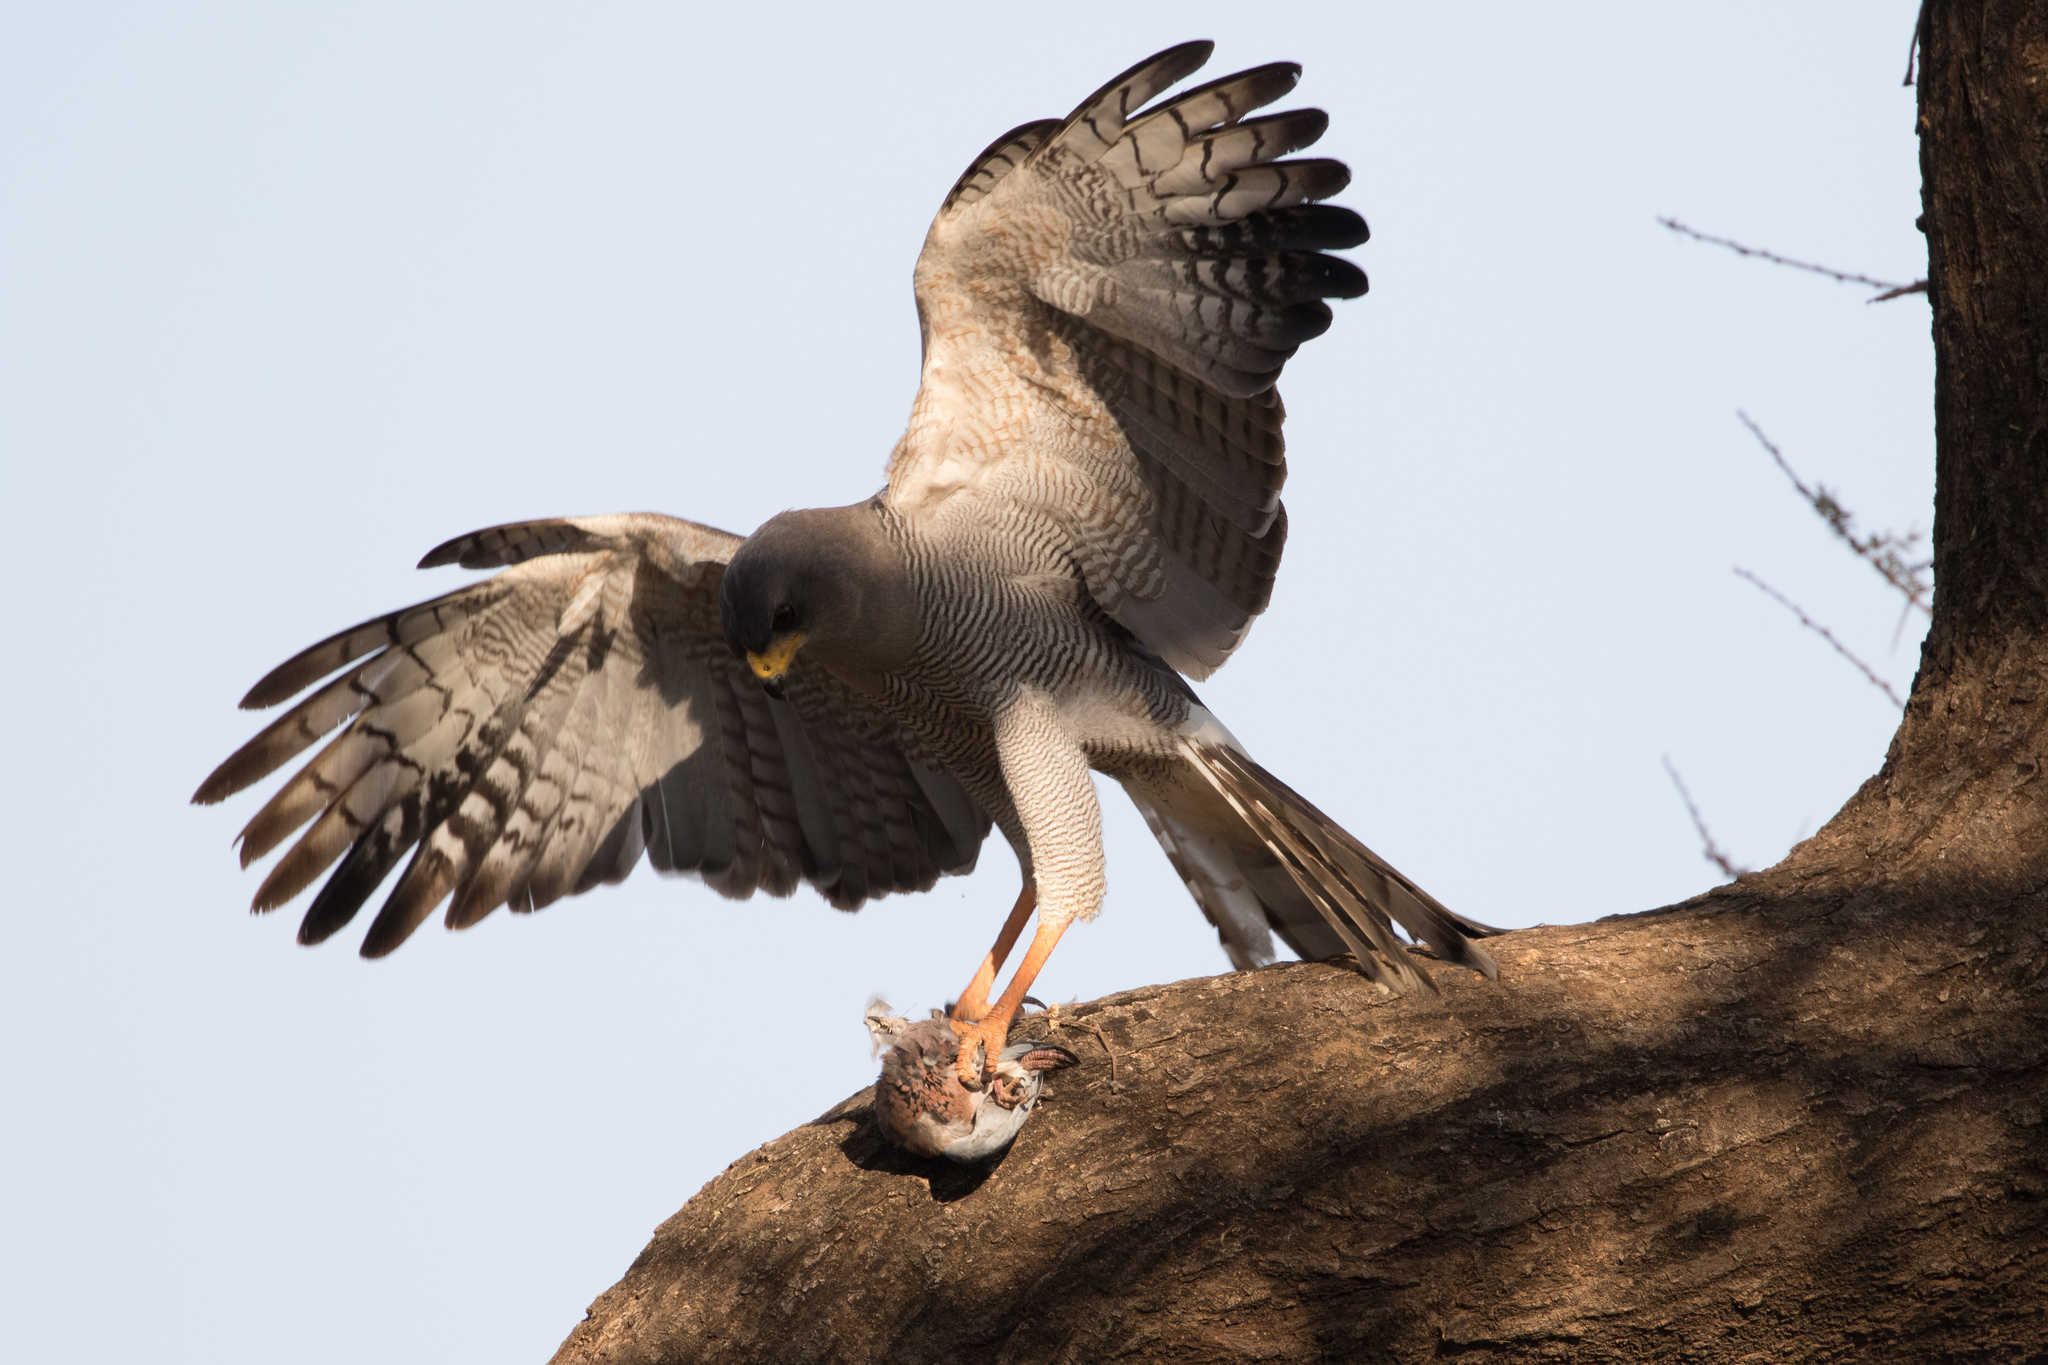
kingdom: Animalia
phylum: Chordata
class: Aves
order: Accipitriformes
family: Accipitridae
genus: Melierax
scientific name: Melierax poliopterus
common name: Eastern chanting goshawk
